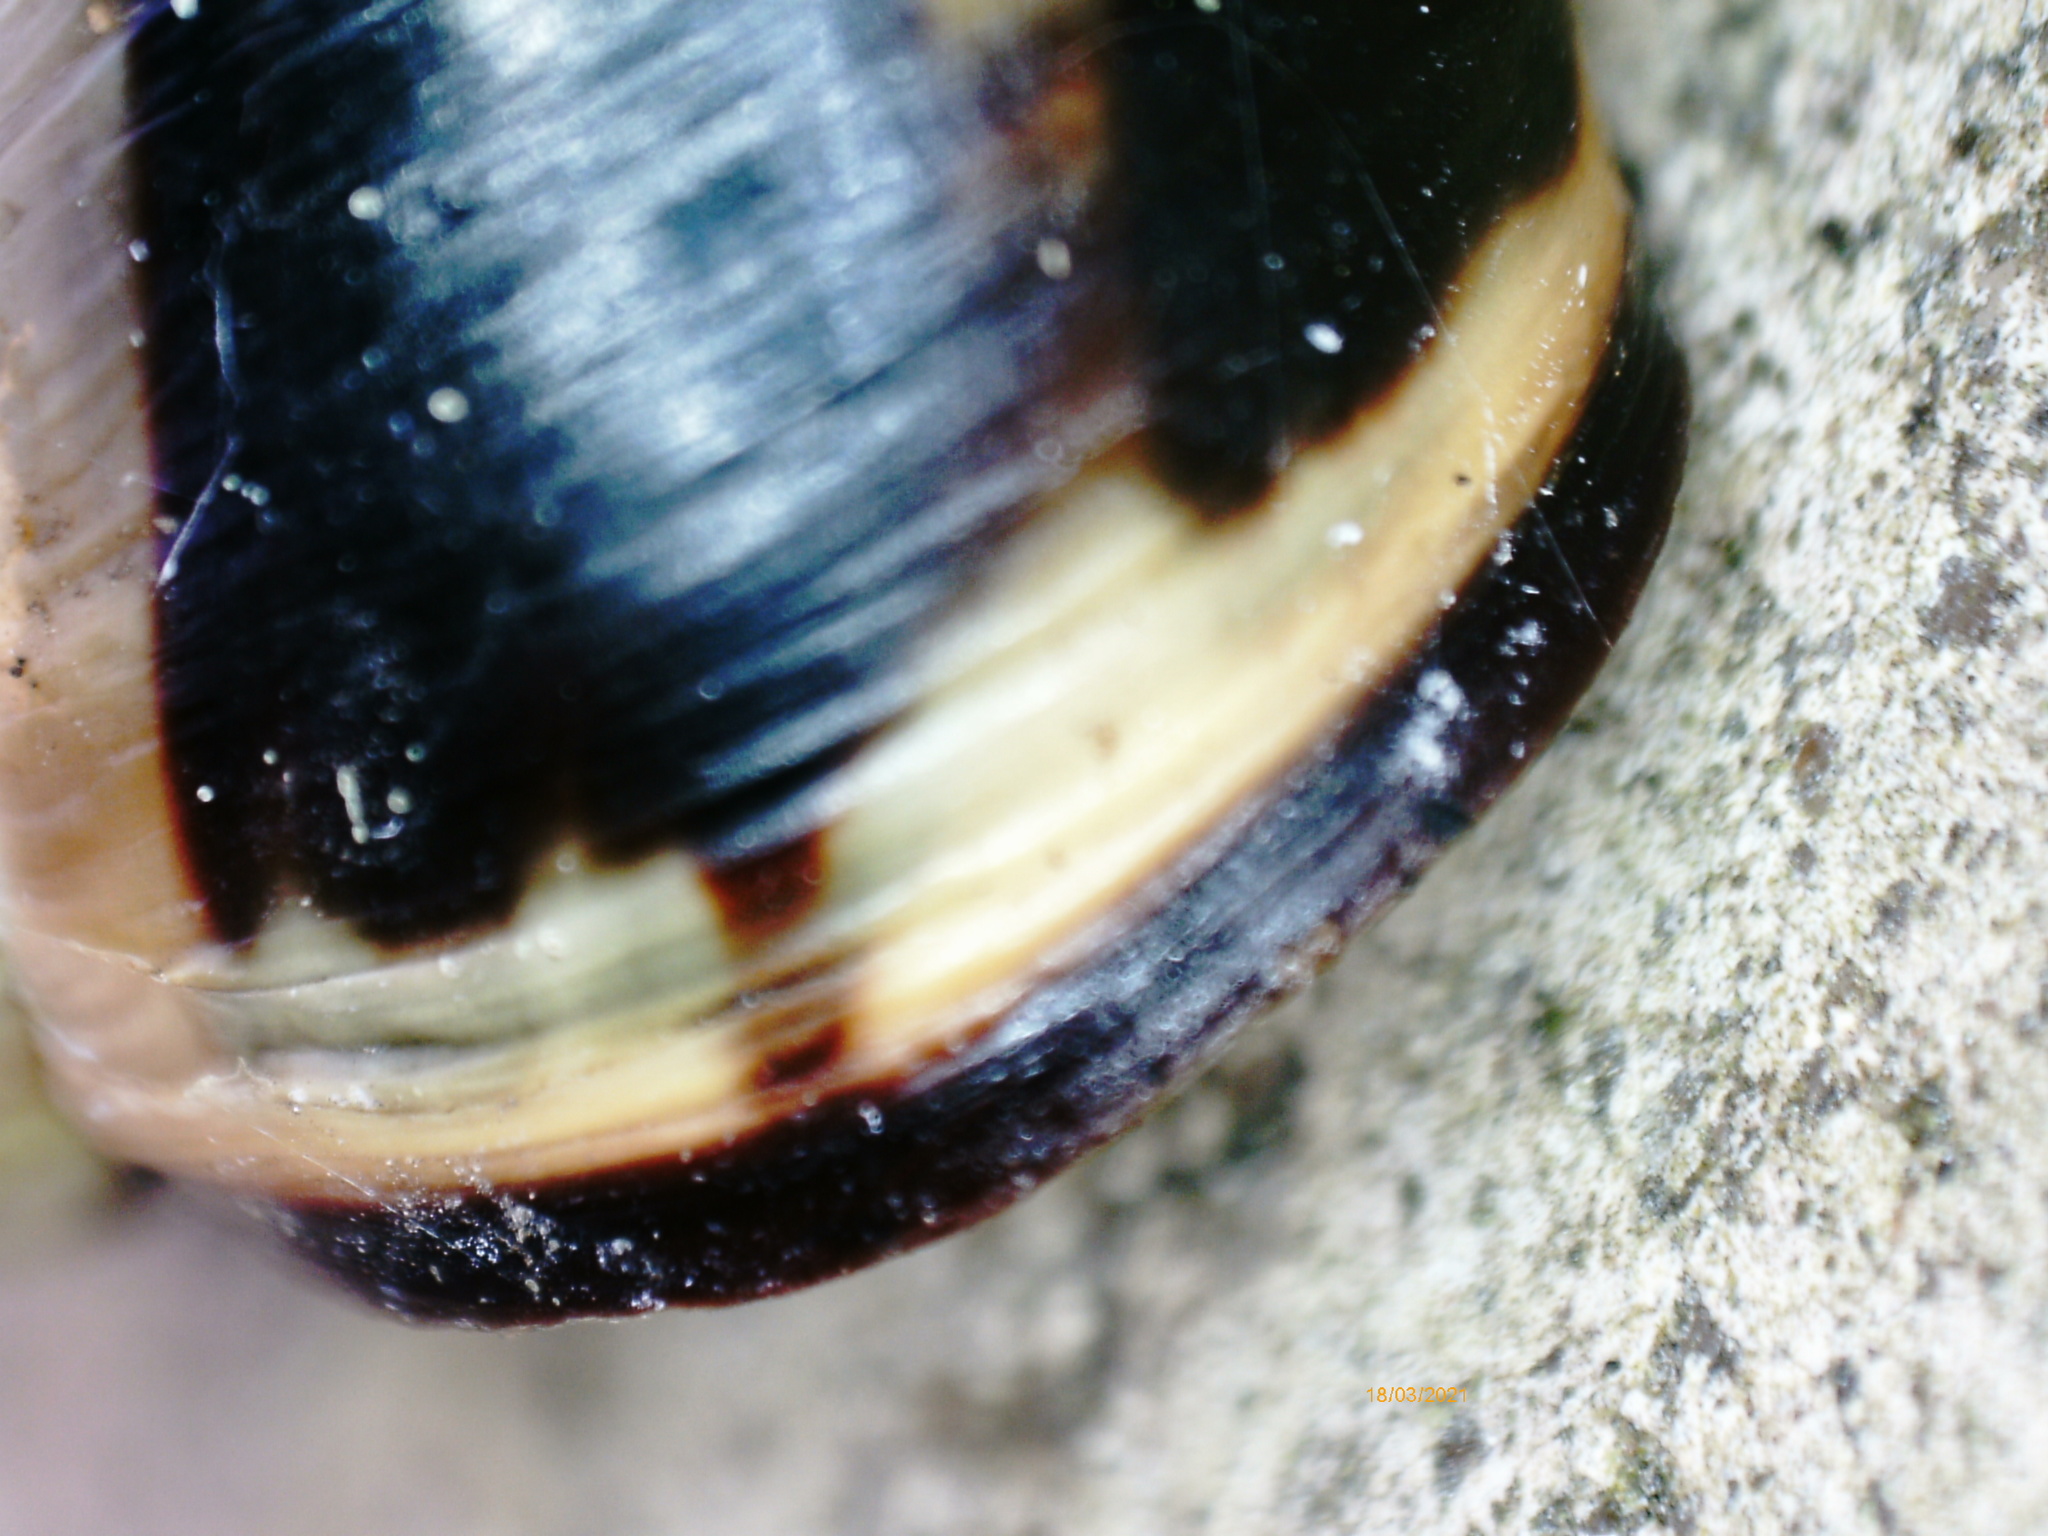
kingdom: Animalia
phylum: Mollusca
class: Gastropoda
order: Stylommatophora
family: Helicidae
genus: Cepaea
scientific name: Cepaea nemoralis
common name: Grovesnail
